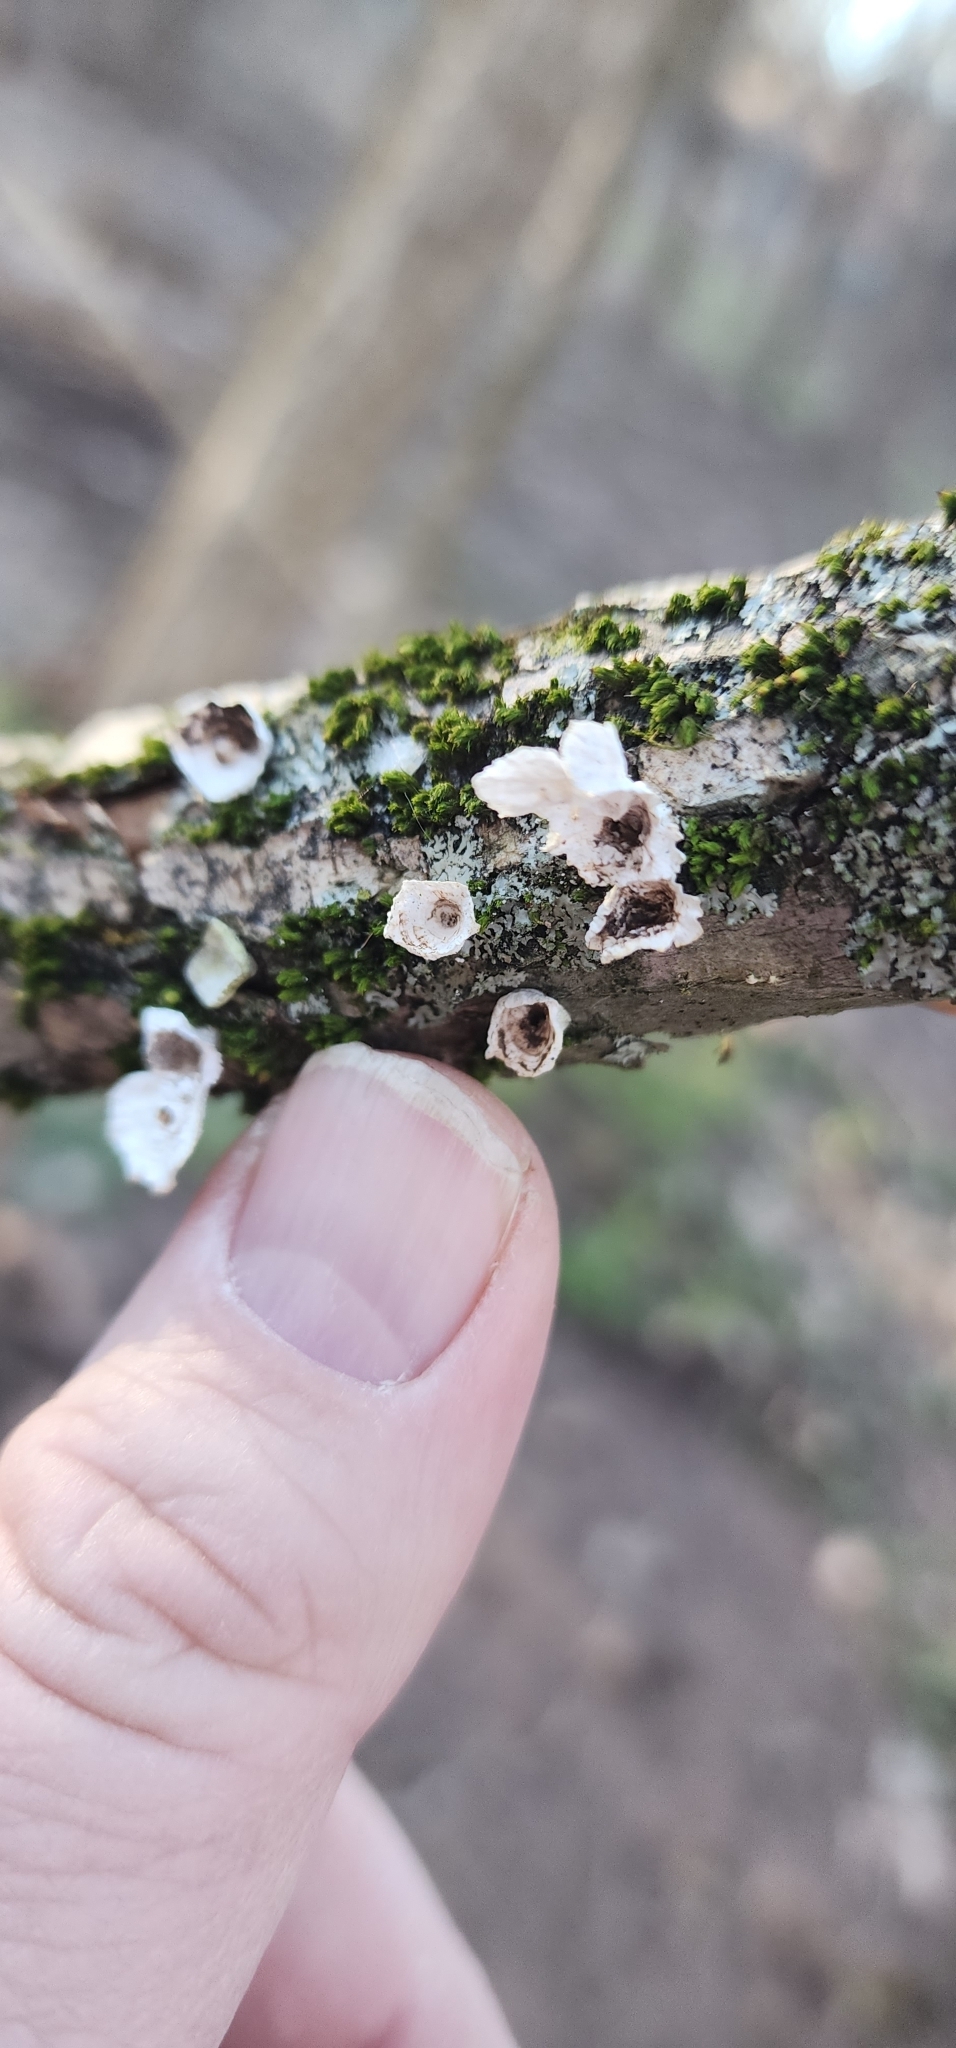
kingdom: Fungi
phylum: Basidiomycota
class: Agaricomycetes
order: Polyporales
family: Polyporaceae
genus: Poronidulus
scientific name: Poronidulus conchifer
